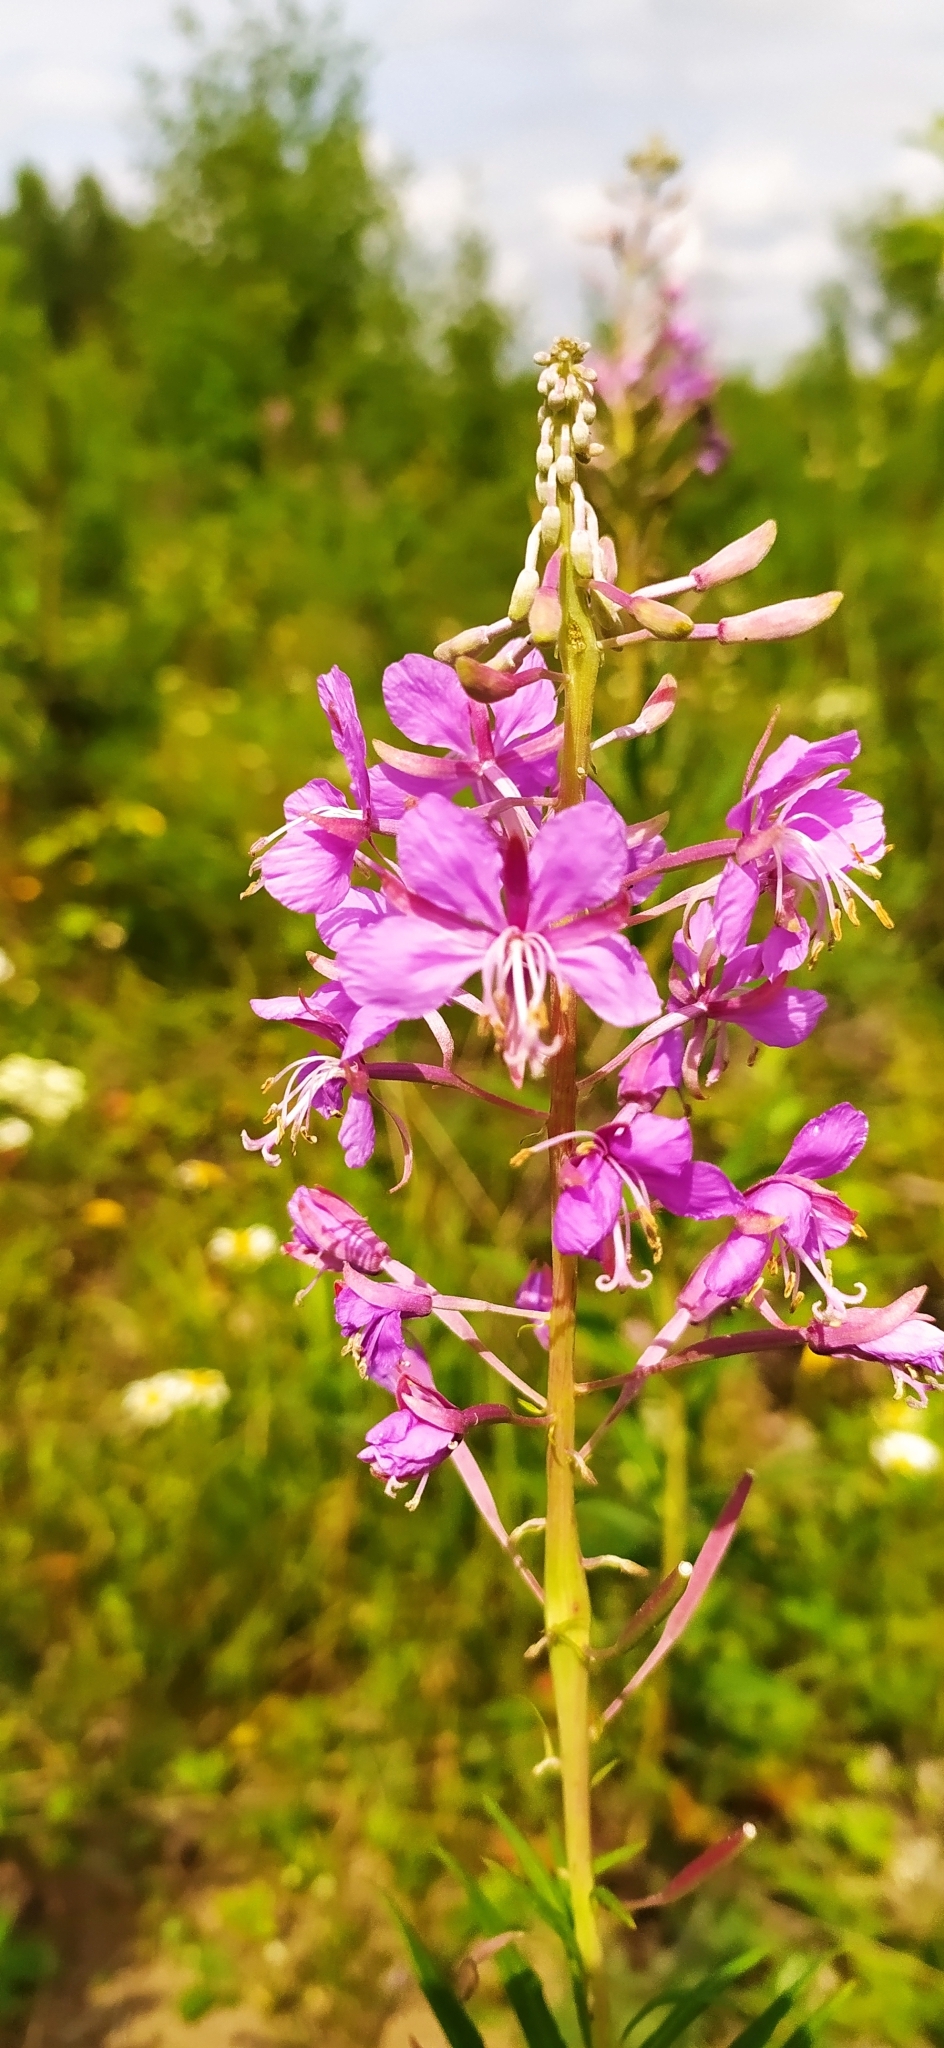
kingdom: Plantae
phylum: Tracheophyta
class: Magnoliopsida
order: Myrtales
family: Onagraceae
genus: Chamaenerion
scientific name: Chamaenerion angustifolium
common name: Fireweed
